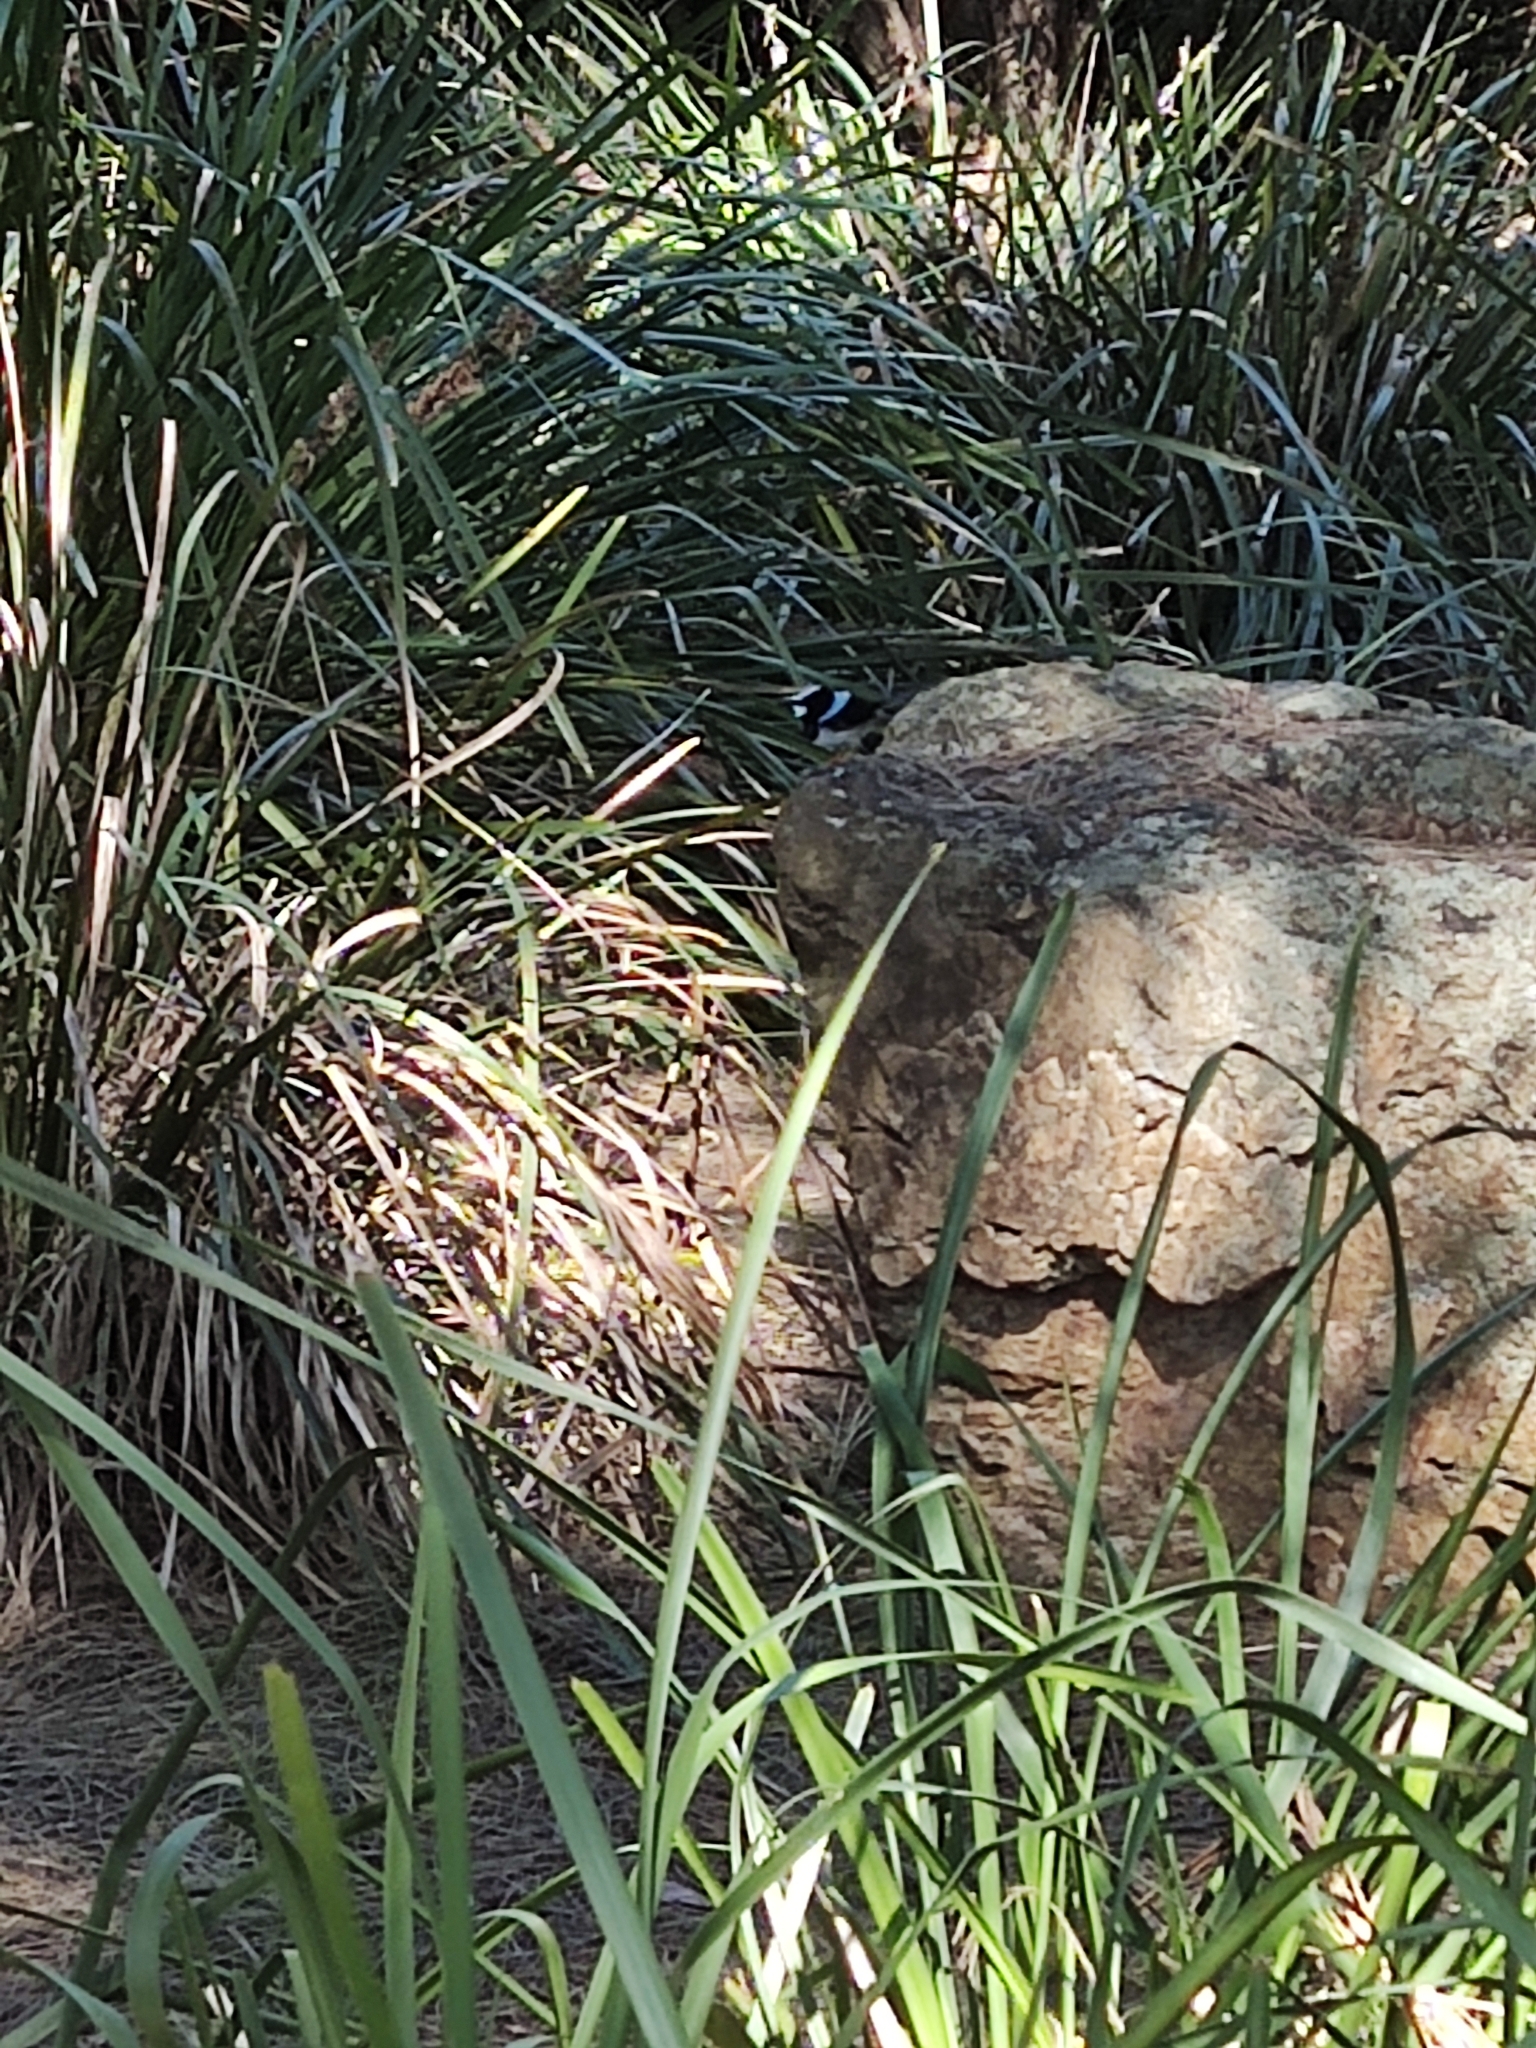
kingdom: Animalia
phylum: Chordata
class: Aves
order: Passeriformes
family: Maluridae
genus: Malurus
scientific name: Malurus cyaneus
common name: Superb fairywren
